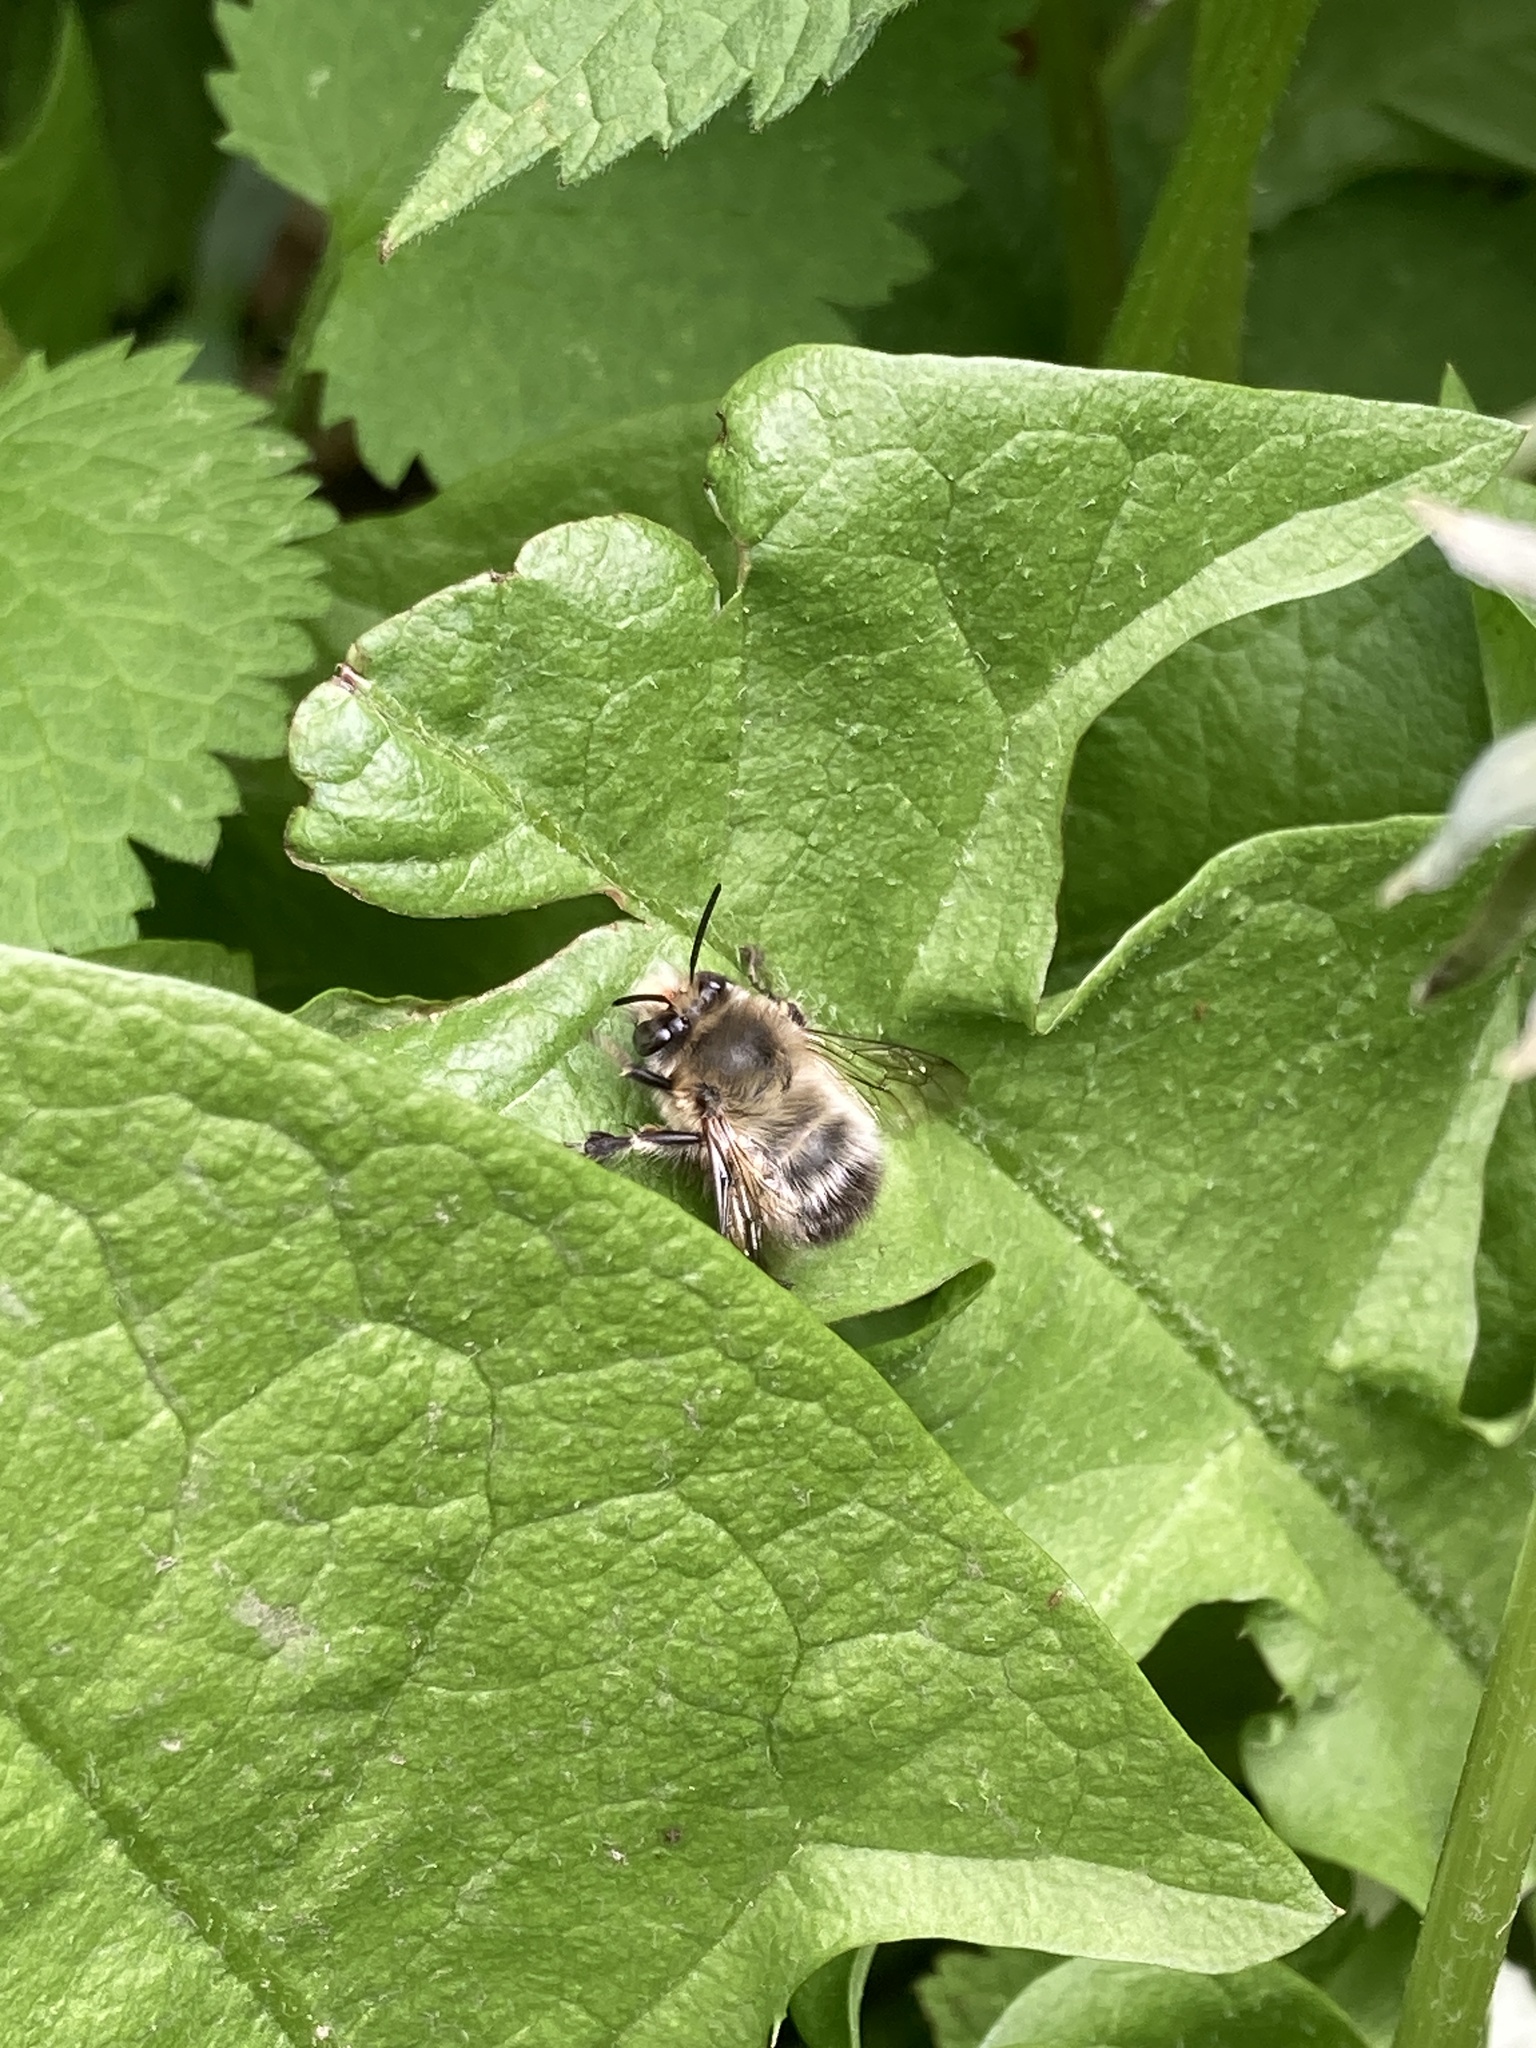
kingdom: Animalia
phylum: Arthropoda
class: Insecta
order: Hymenoptera
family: Apidae
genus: Anthophora
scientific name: Anthophora plumipes
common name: Hairy-footed flower bee
